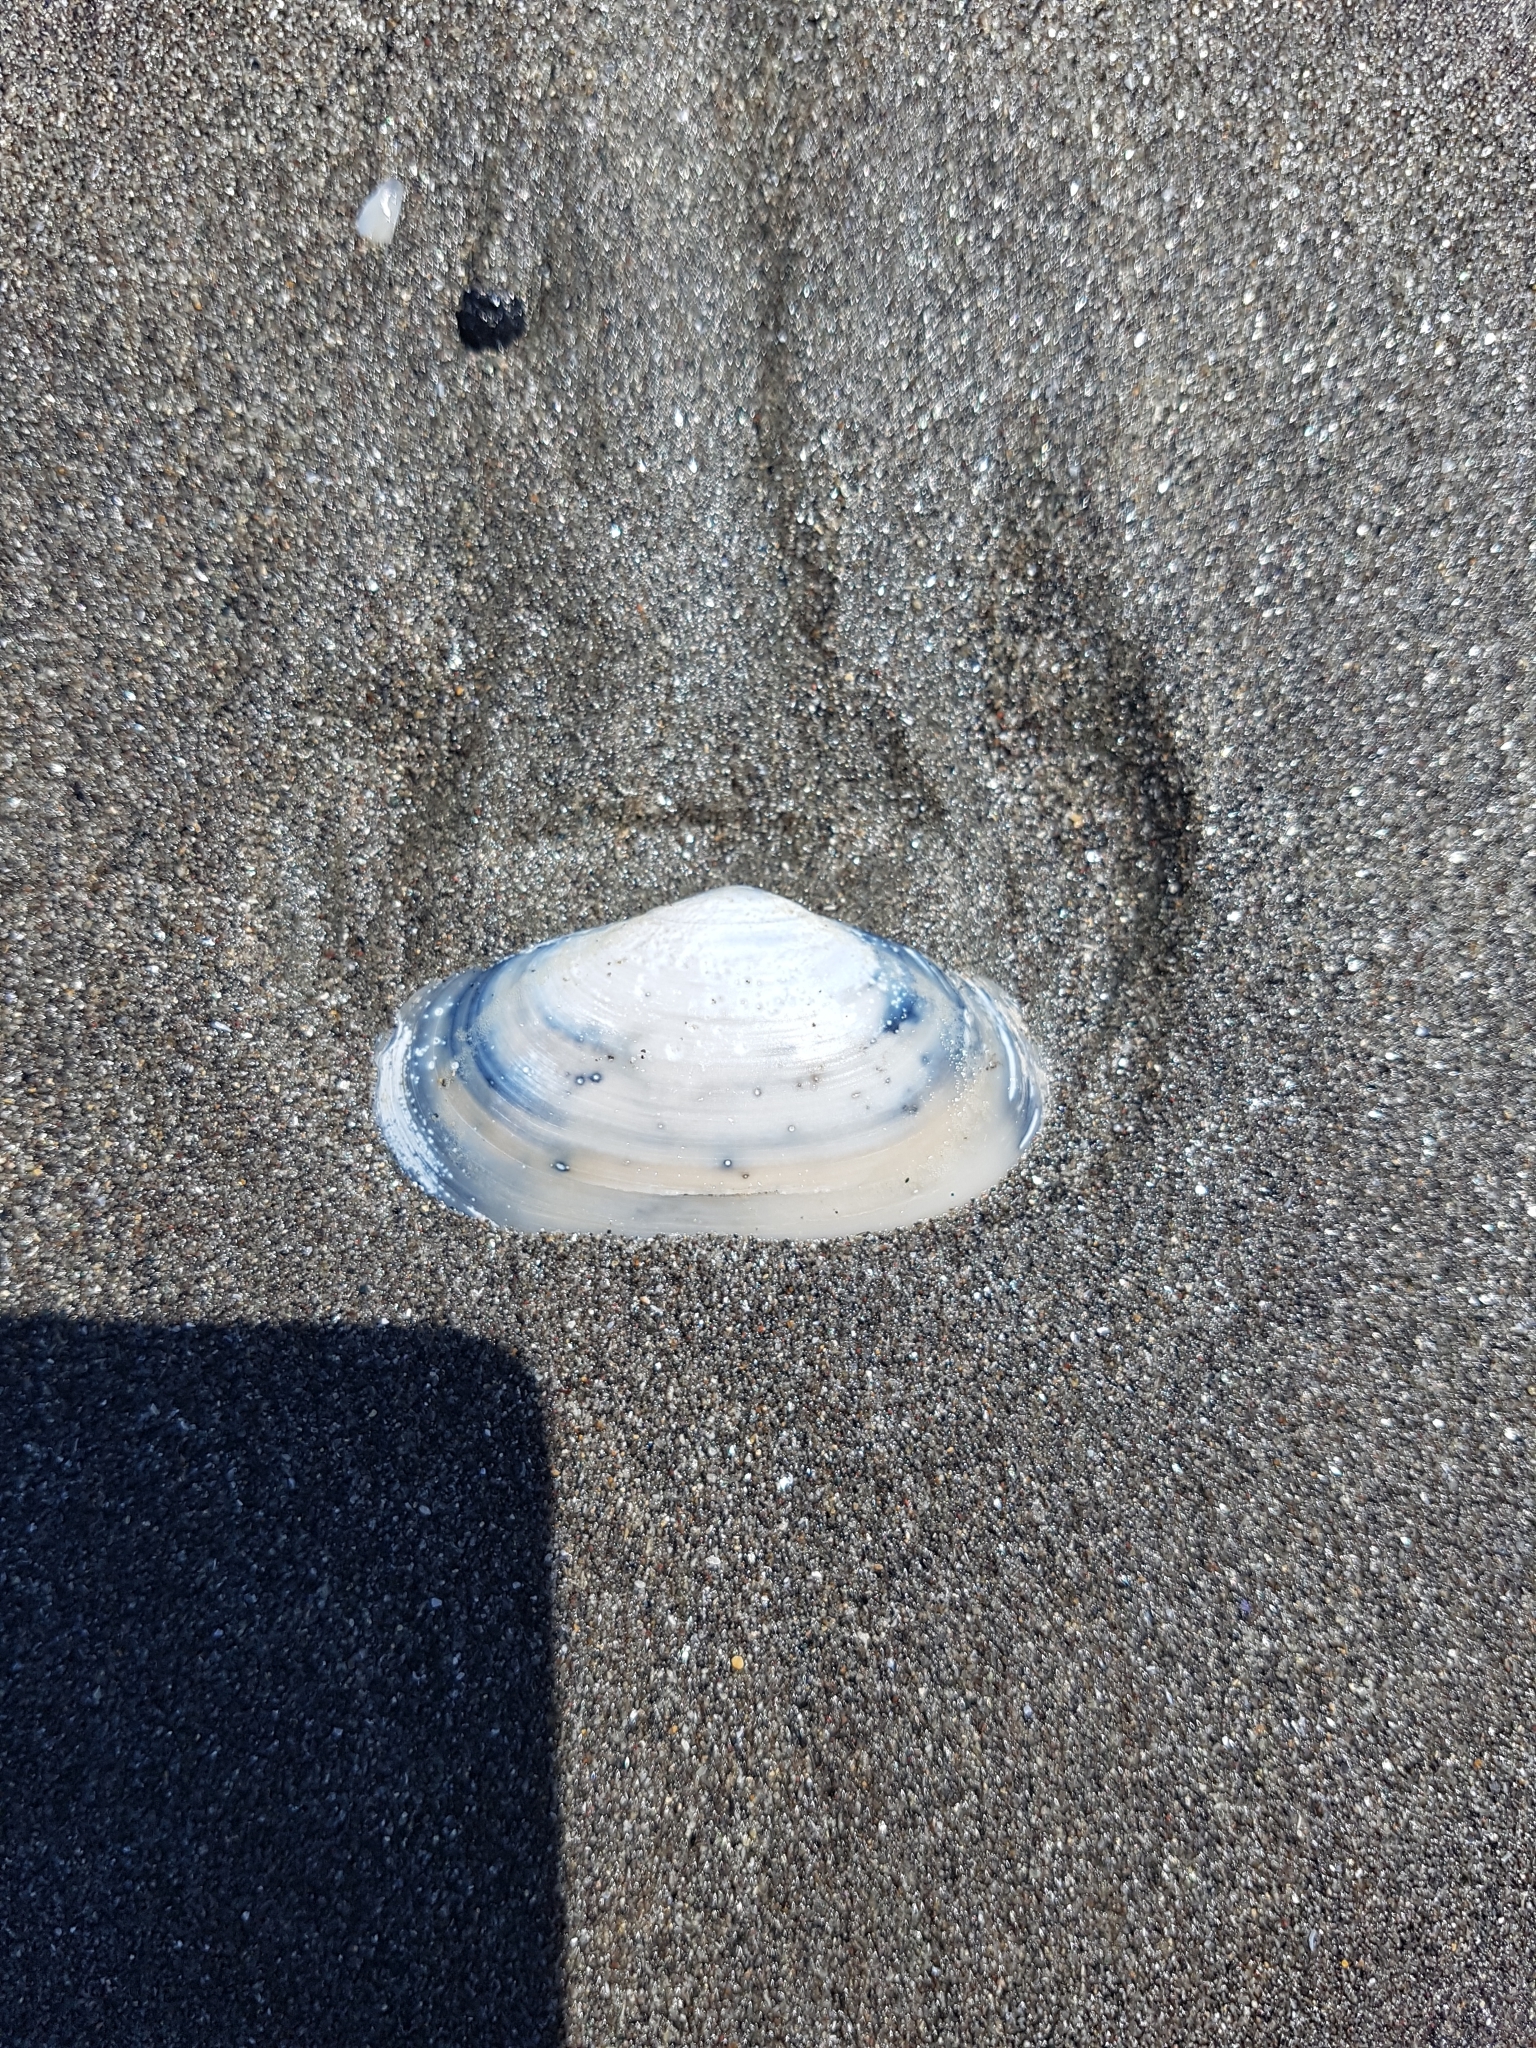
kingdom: Animalia
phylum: Mollusca
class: Bivalvia
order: Venerida
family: Mesodesmatidae
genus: Paphies
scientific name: Paphies australis
